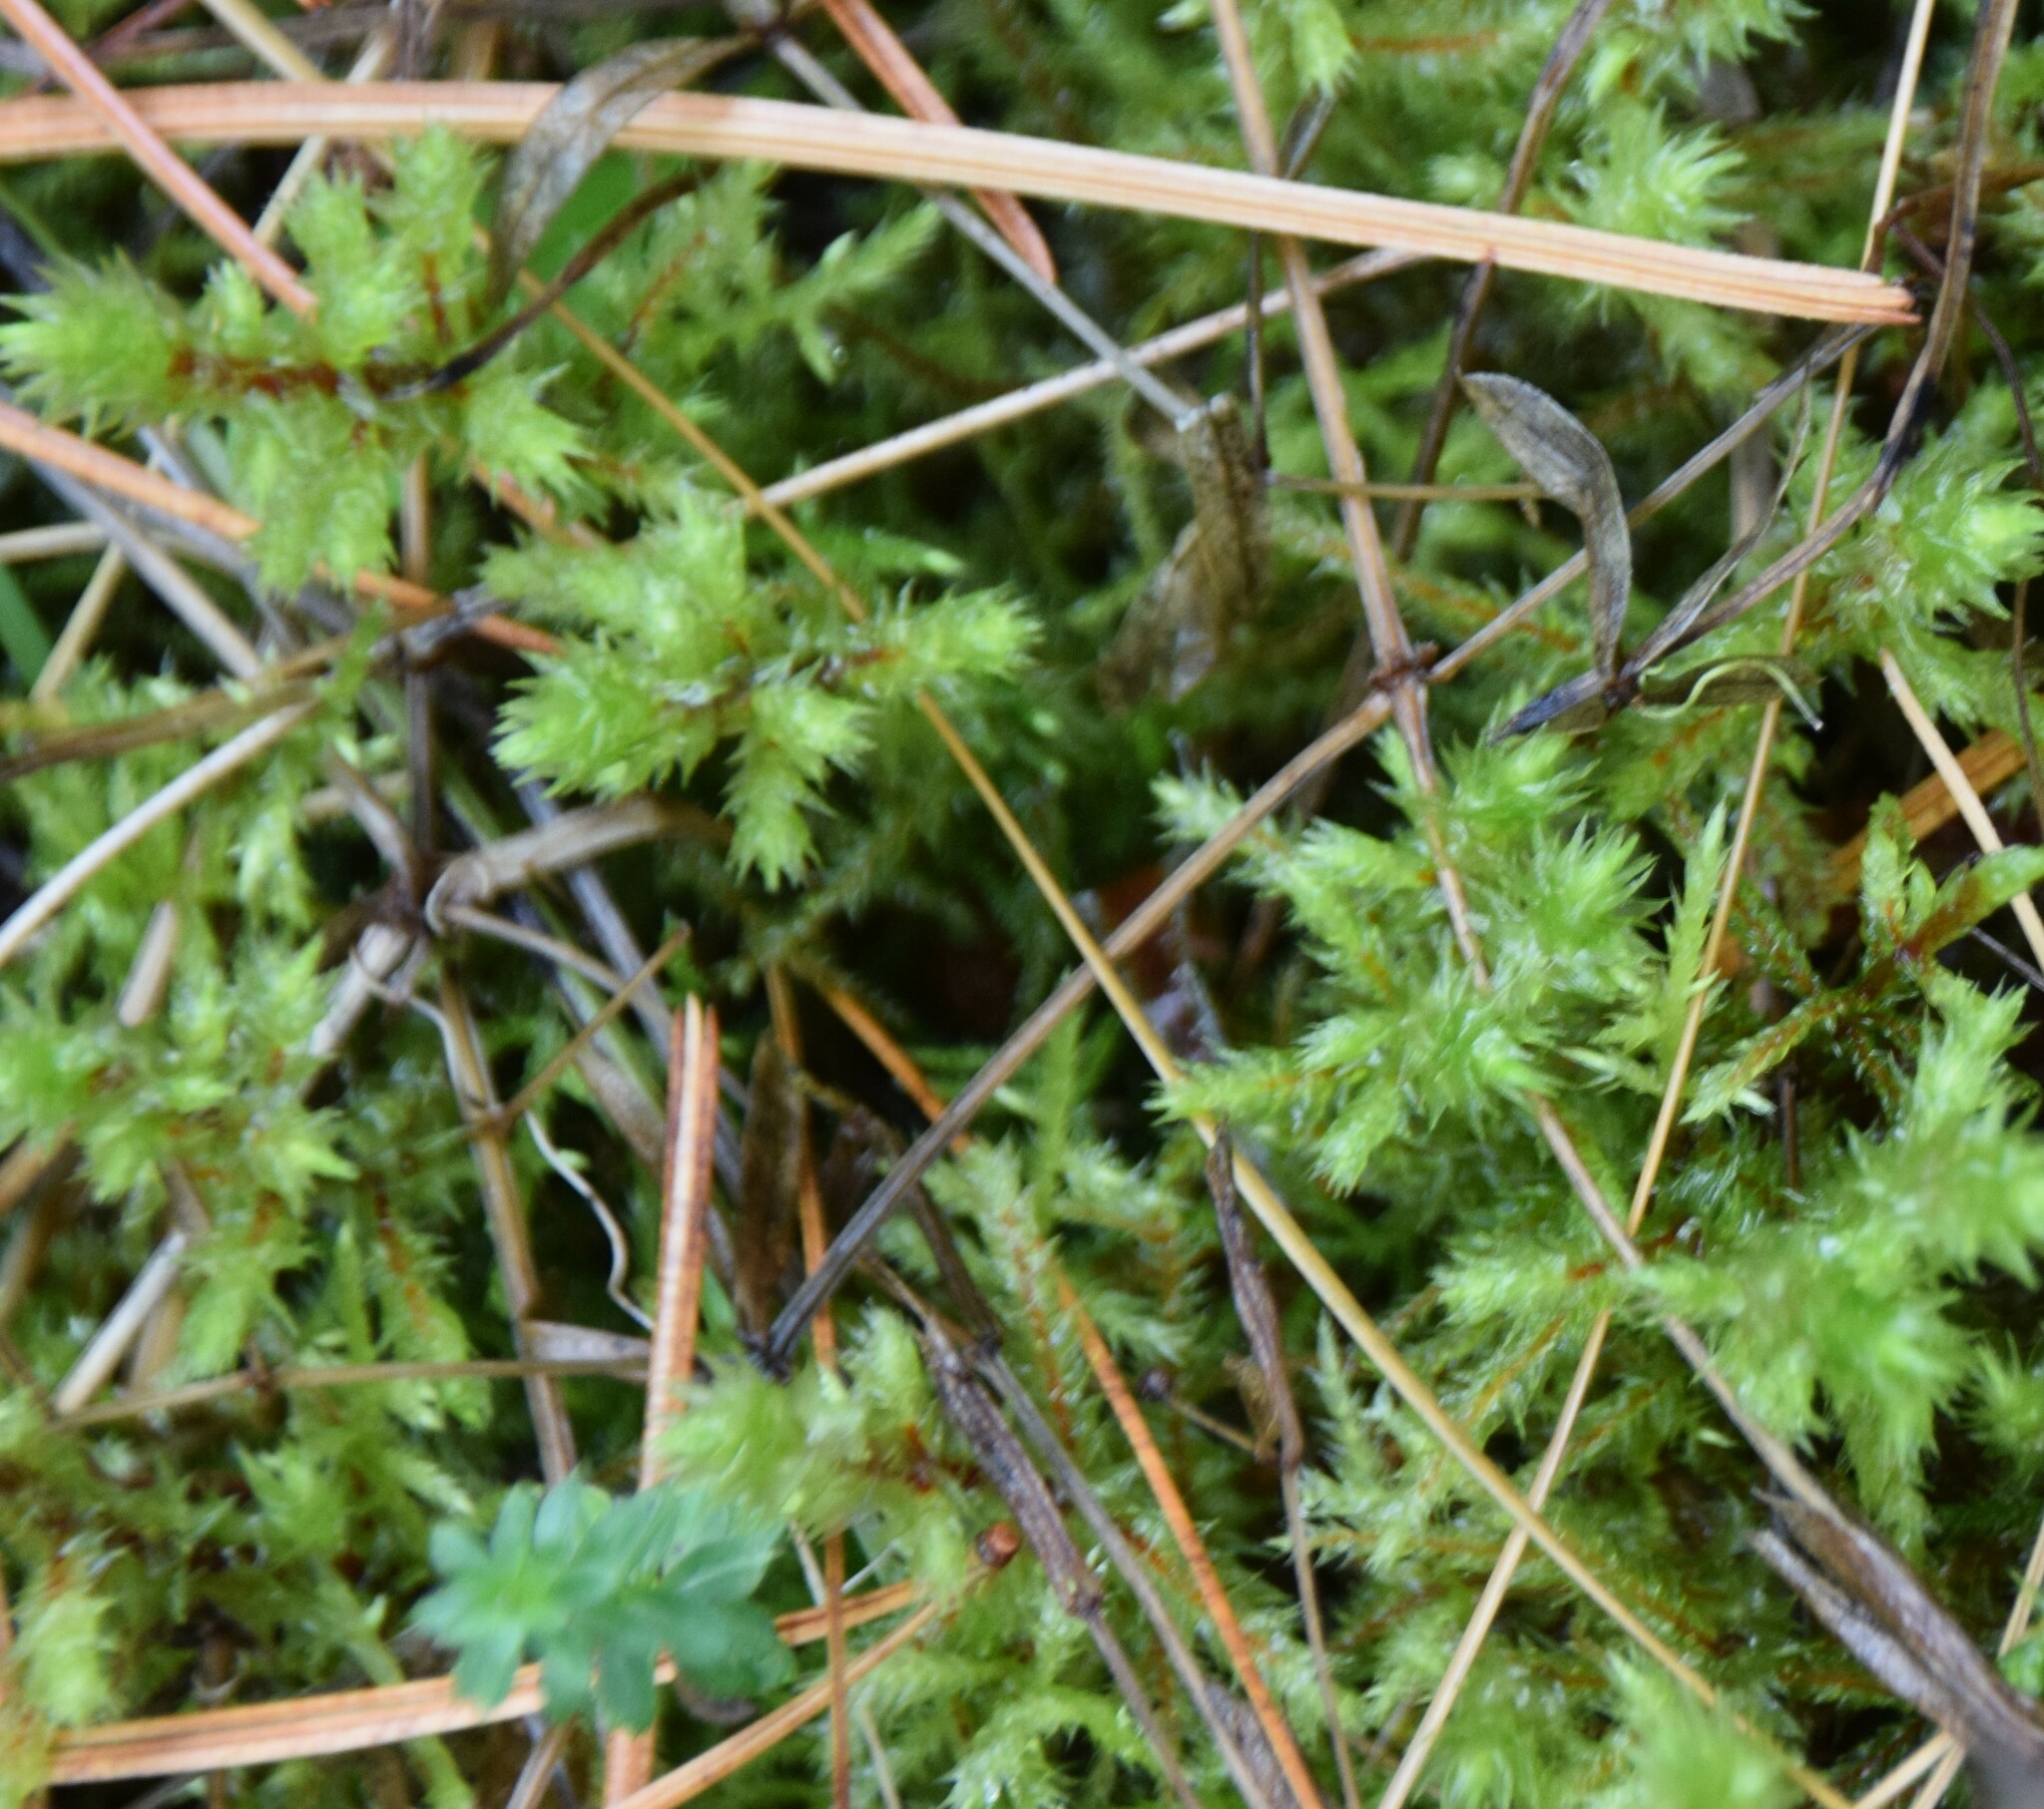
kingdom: Plantae
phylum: Bryophyta
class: Bryopsida
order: Hypnales
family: Hylocomiaceae
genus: Hylocomiadelphus
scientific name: Hylocomiadelphus triquetrus
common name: Rough goose neck moss
